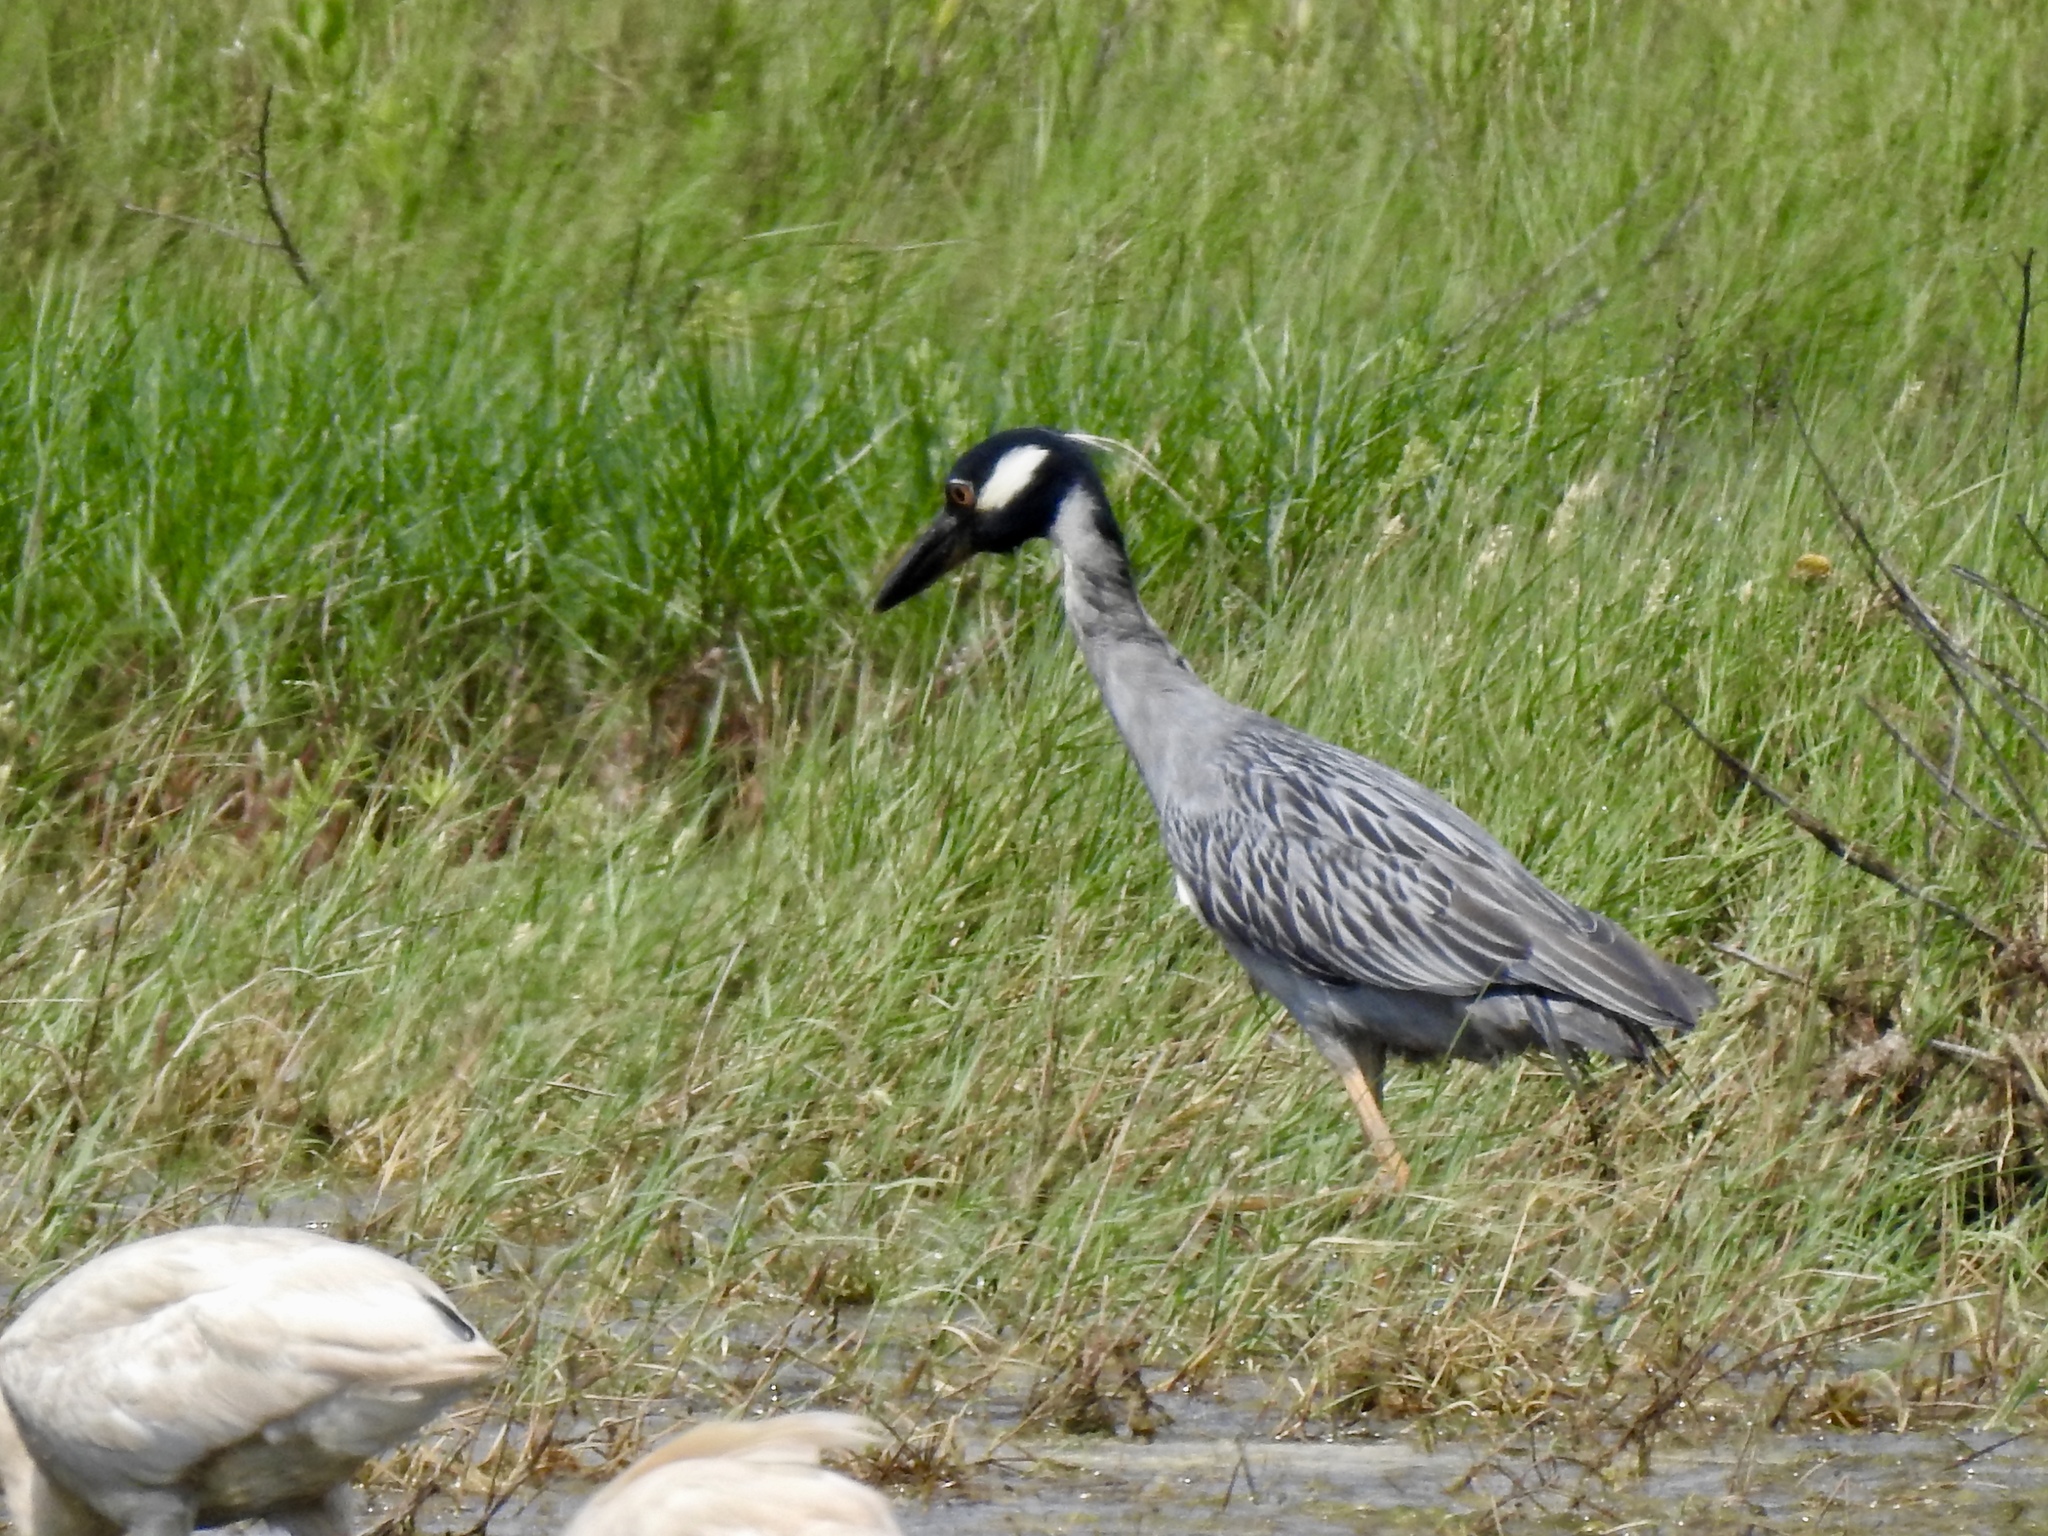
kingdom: Animalia
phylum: Chordata
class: Aves
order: Pelecaniformes
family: Ardeidae
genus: Nyctanassa
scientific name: Nyctanassa violacea
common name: Yellow-crowned night heron
